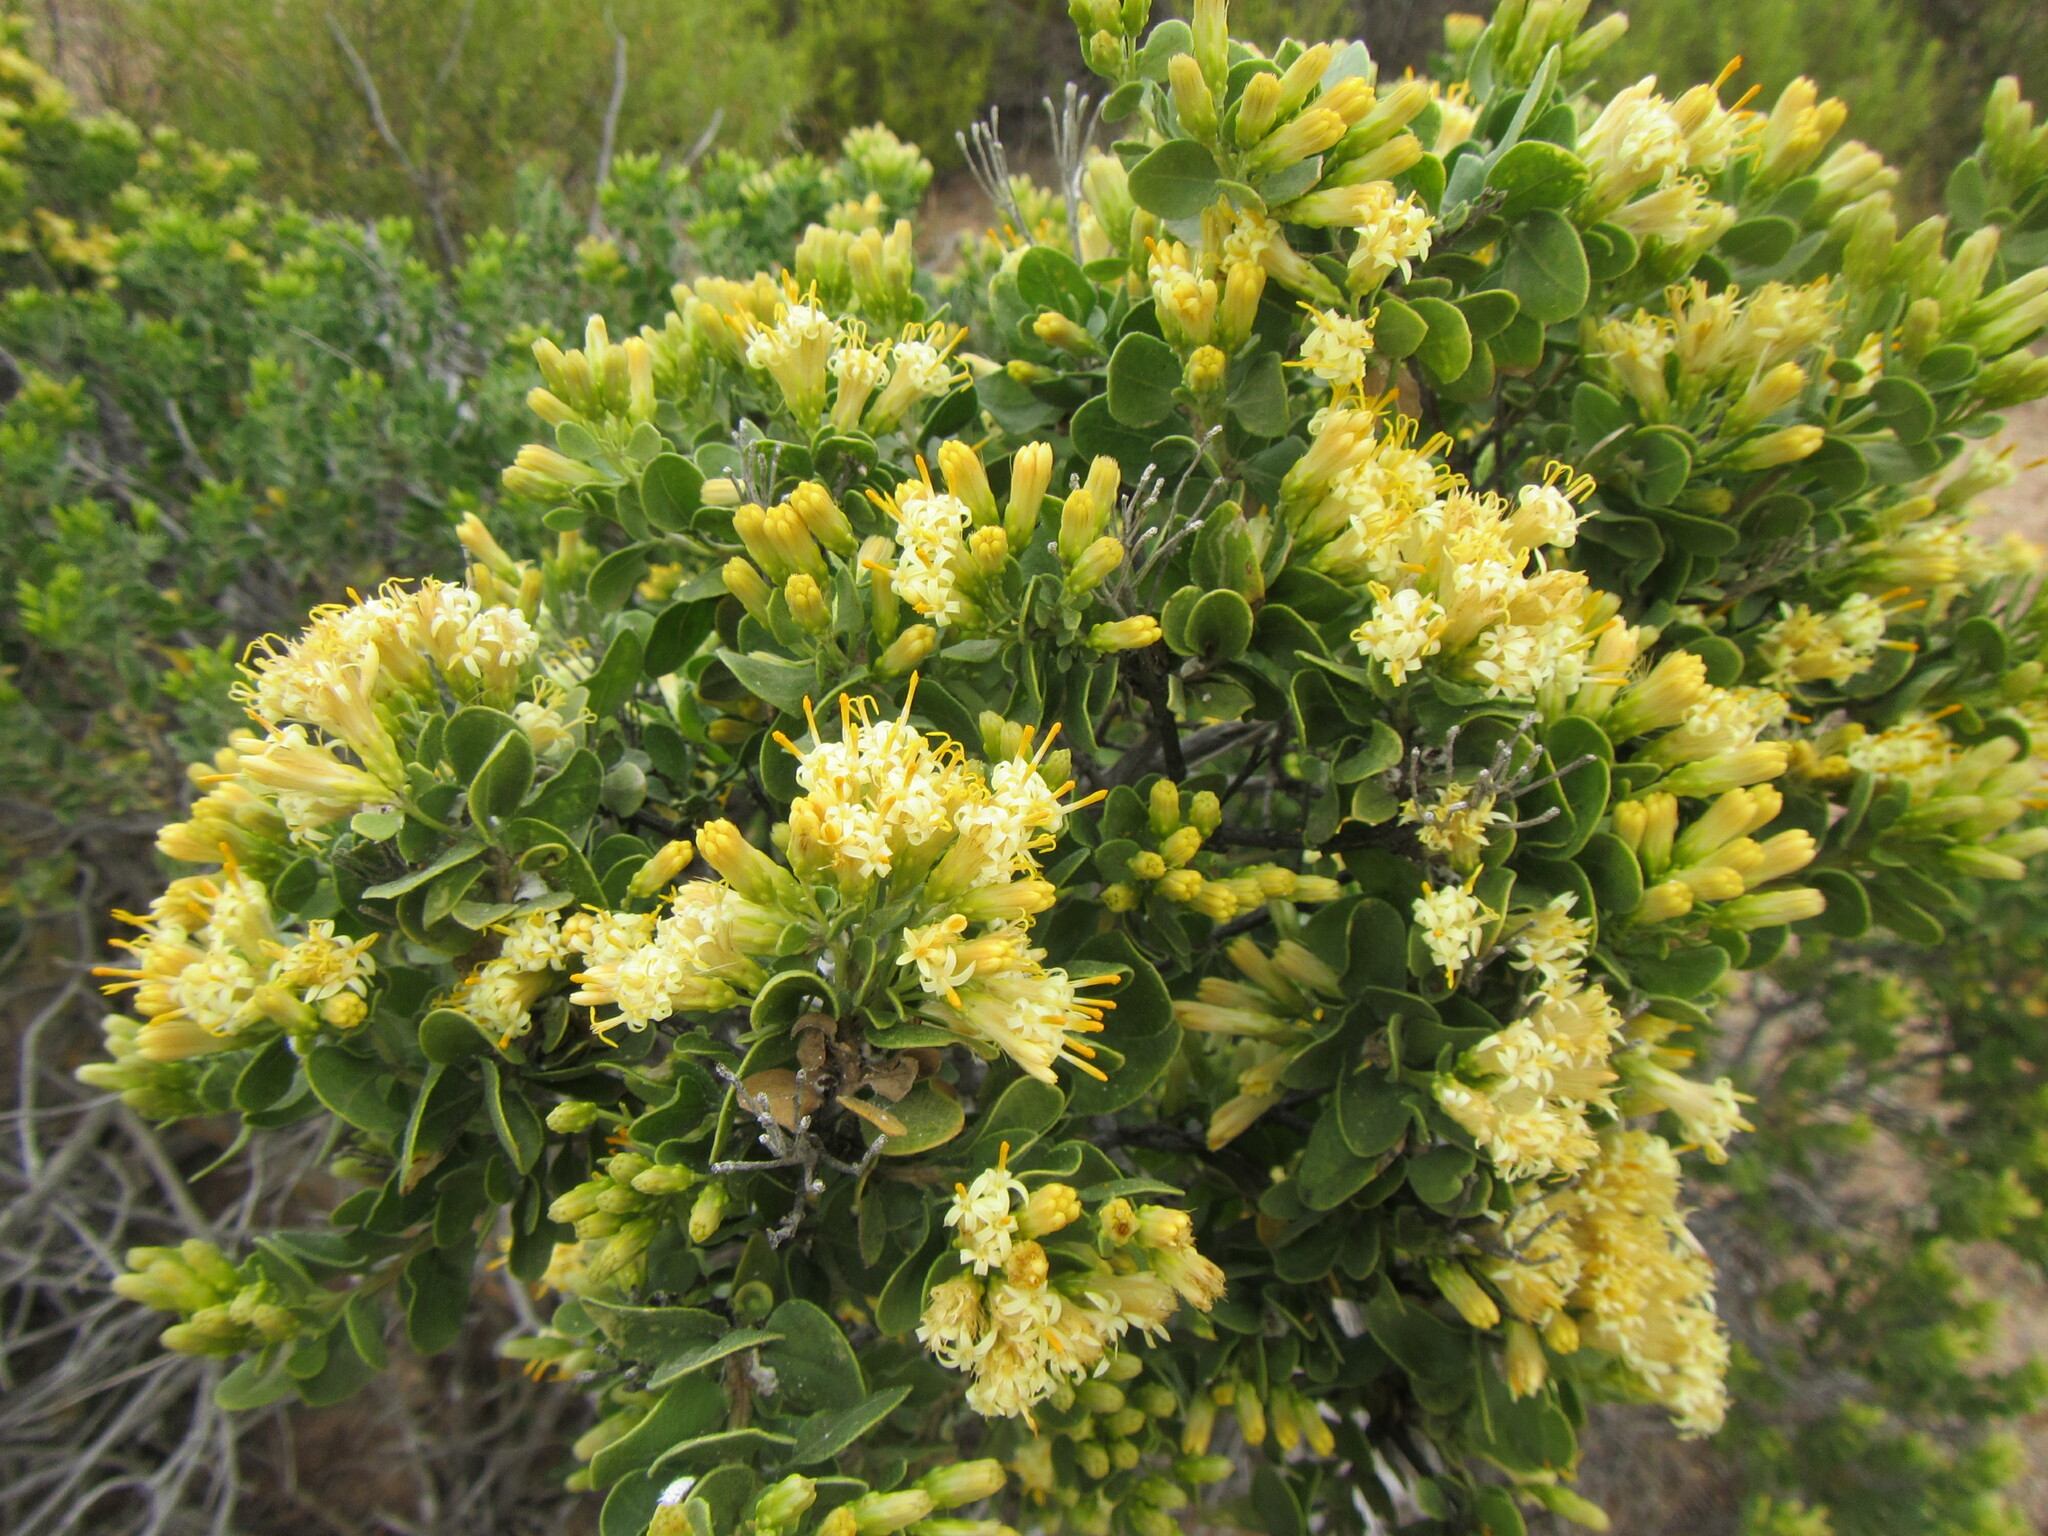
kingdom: Plantae
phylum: Tracheophyta
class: Magnoliopsida
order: Asterales
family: Asteraceae
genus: Pteronia
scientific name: Pteronia divaricata
